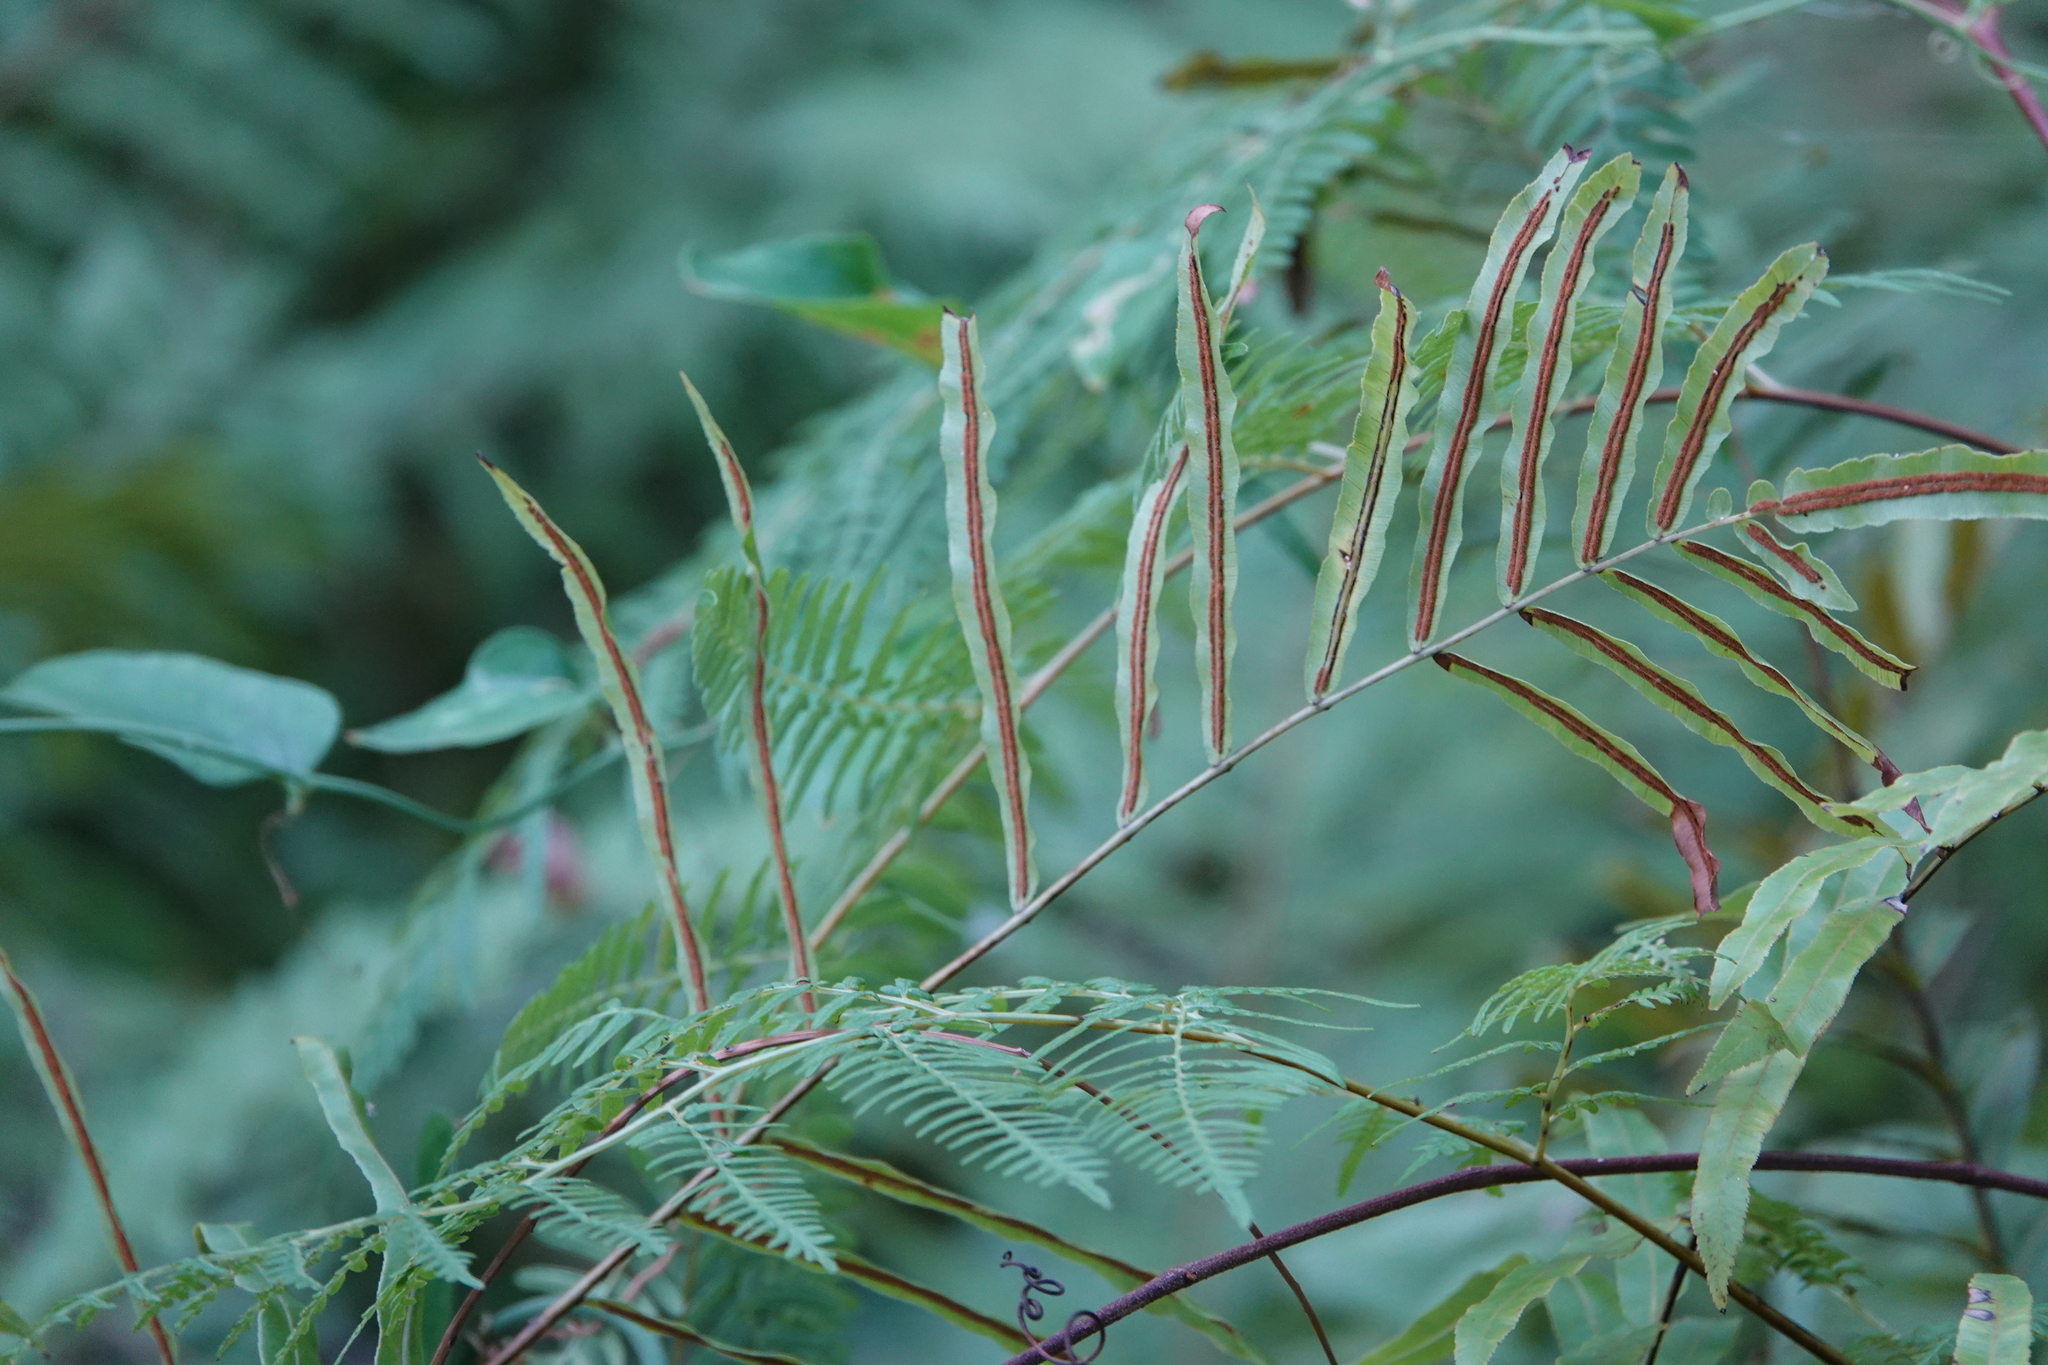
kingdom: Plantae
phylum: Tracheophyta
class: Polypodiopsida
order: Polypodiales
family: Blechnaceae
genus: Telmatoblechnum
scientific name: Telmatoblechnum serrulatum
